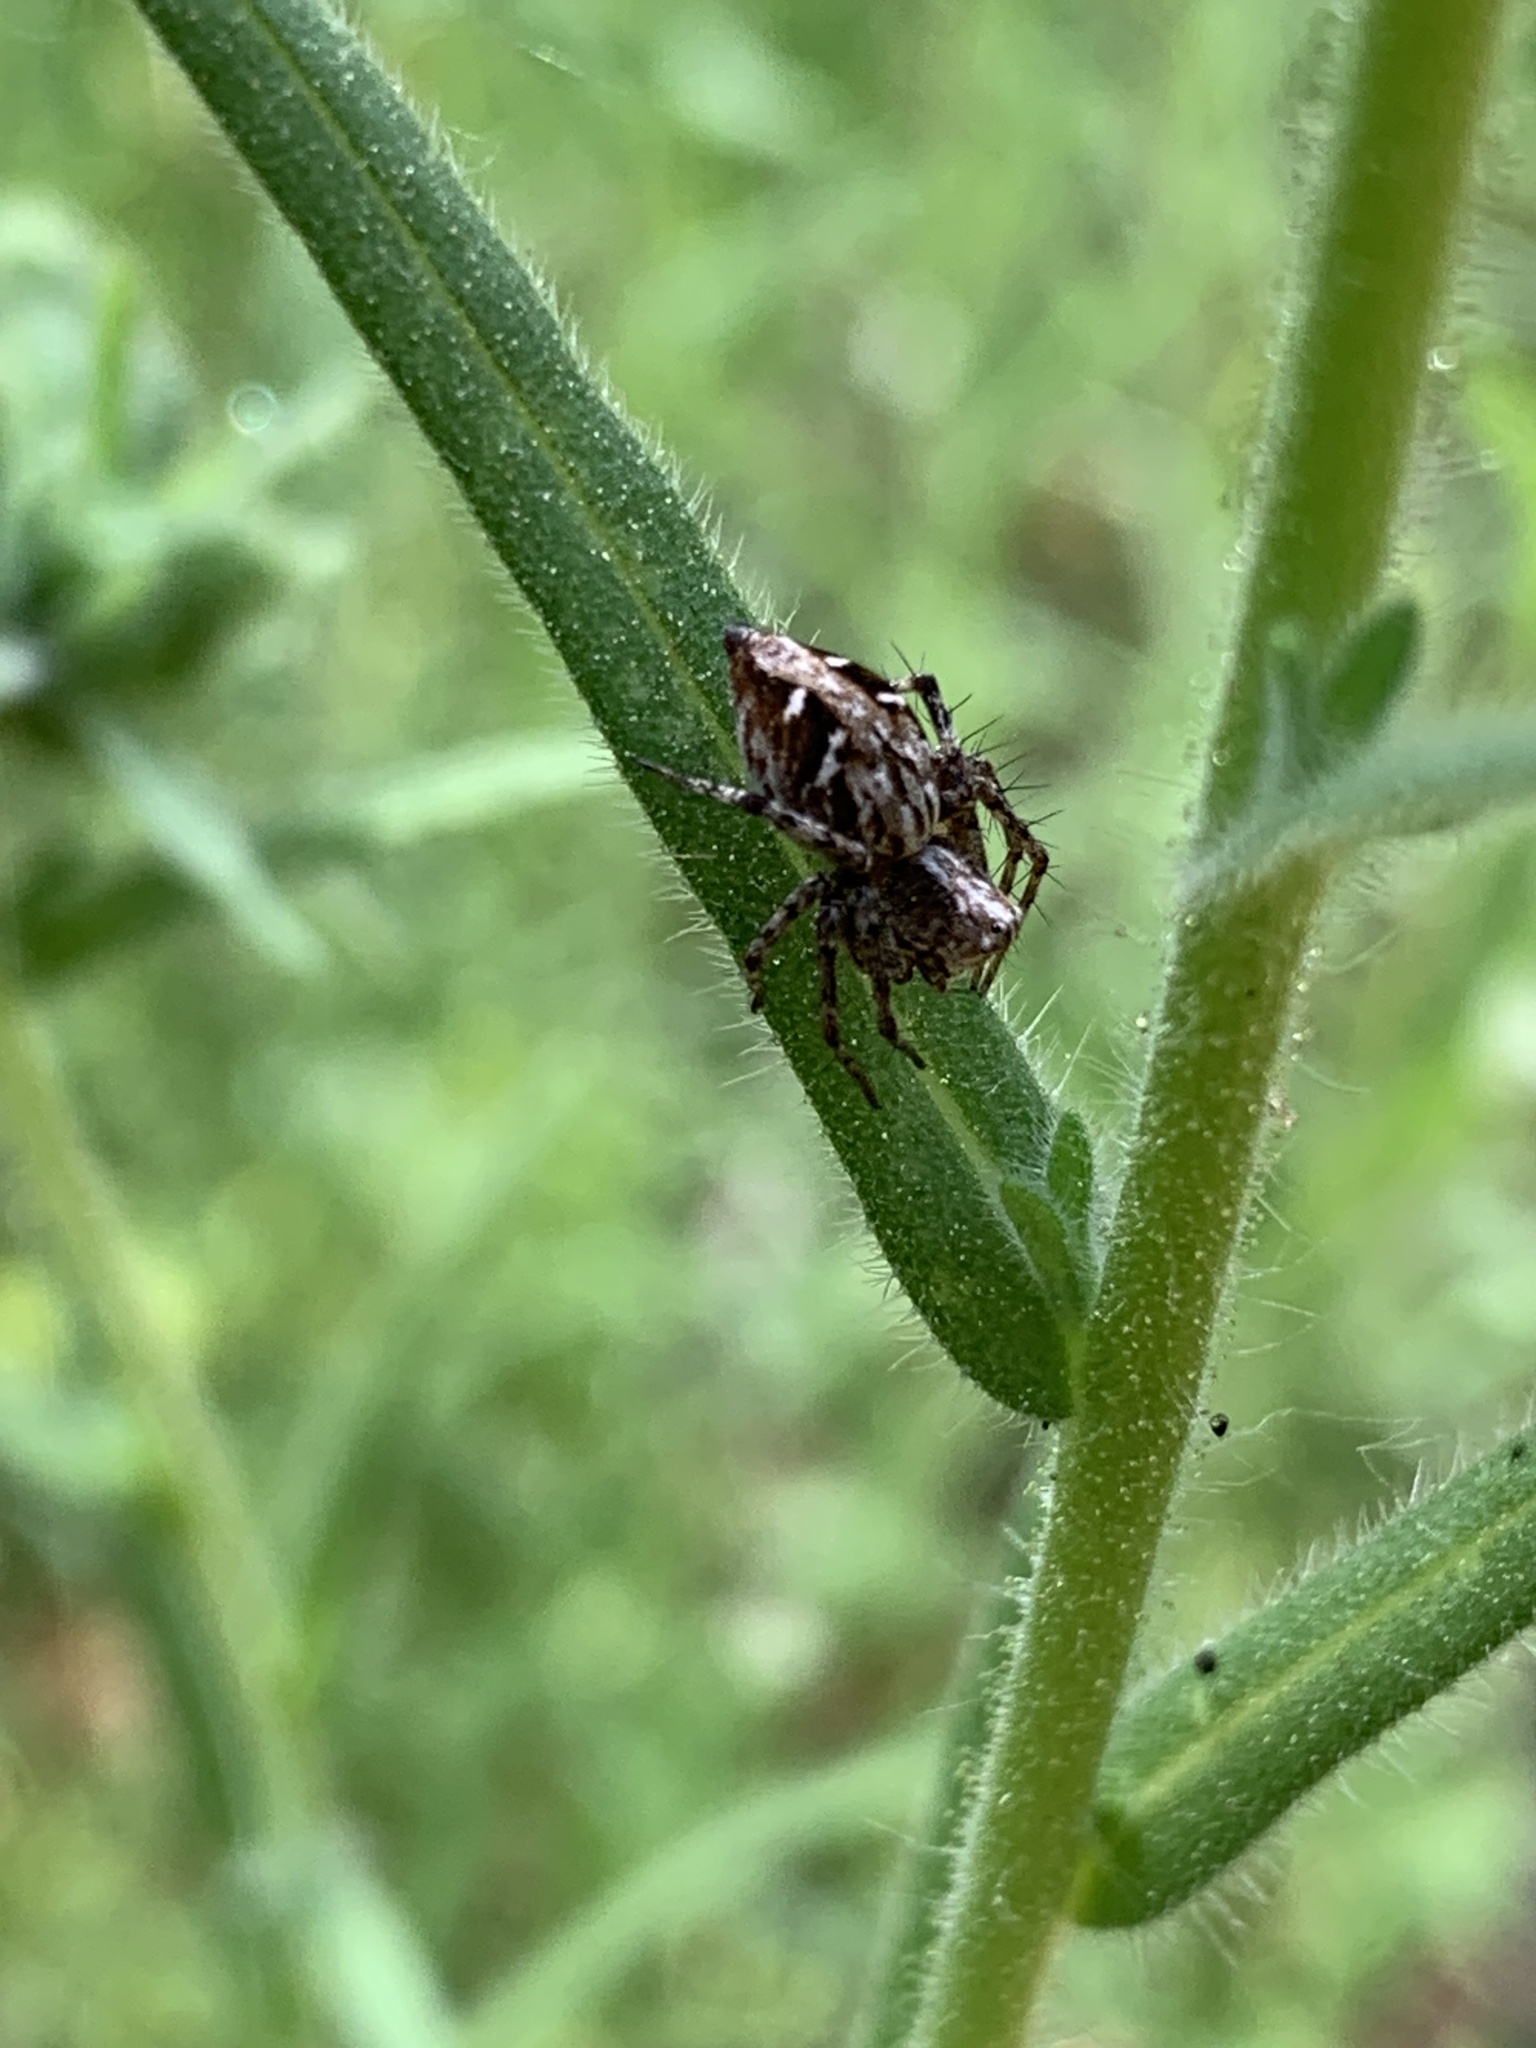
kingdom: Animalia
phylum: Arthropoda
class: Arachnida
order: Araneae
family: Oxyopidae
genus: Oxyopes
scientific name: Oxyopes scalaris
